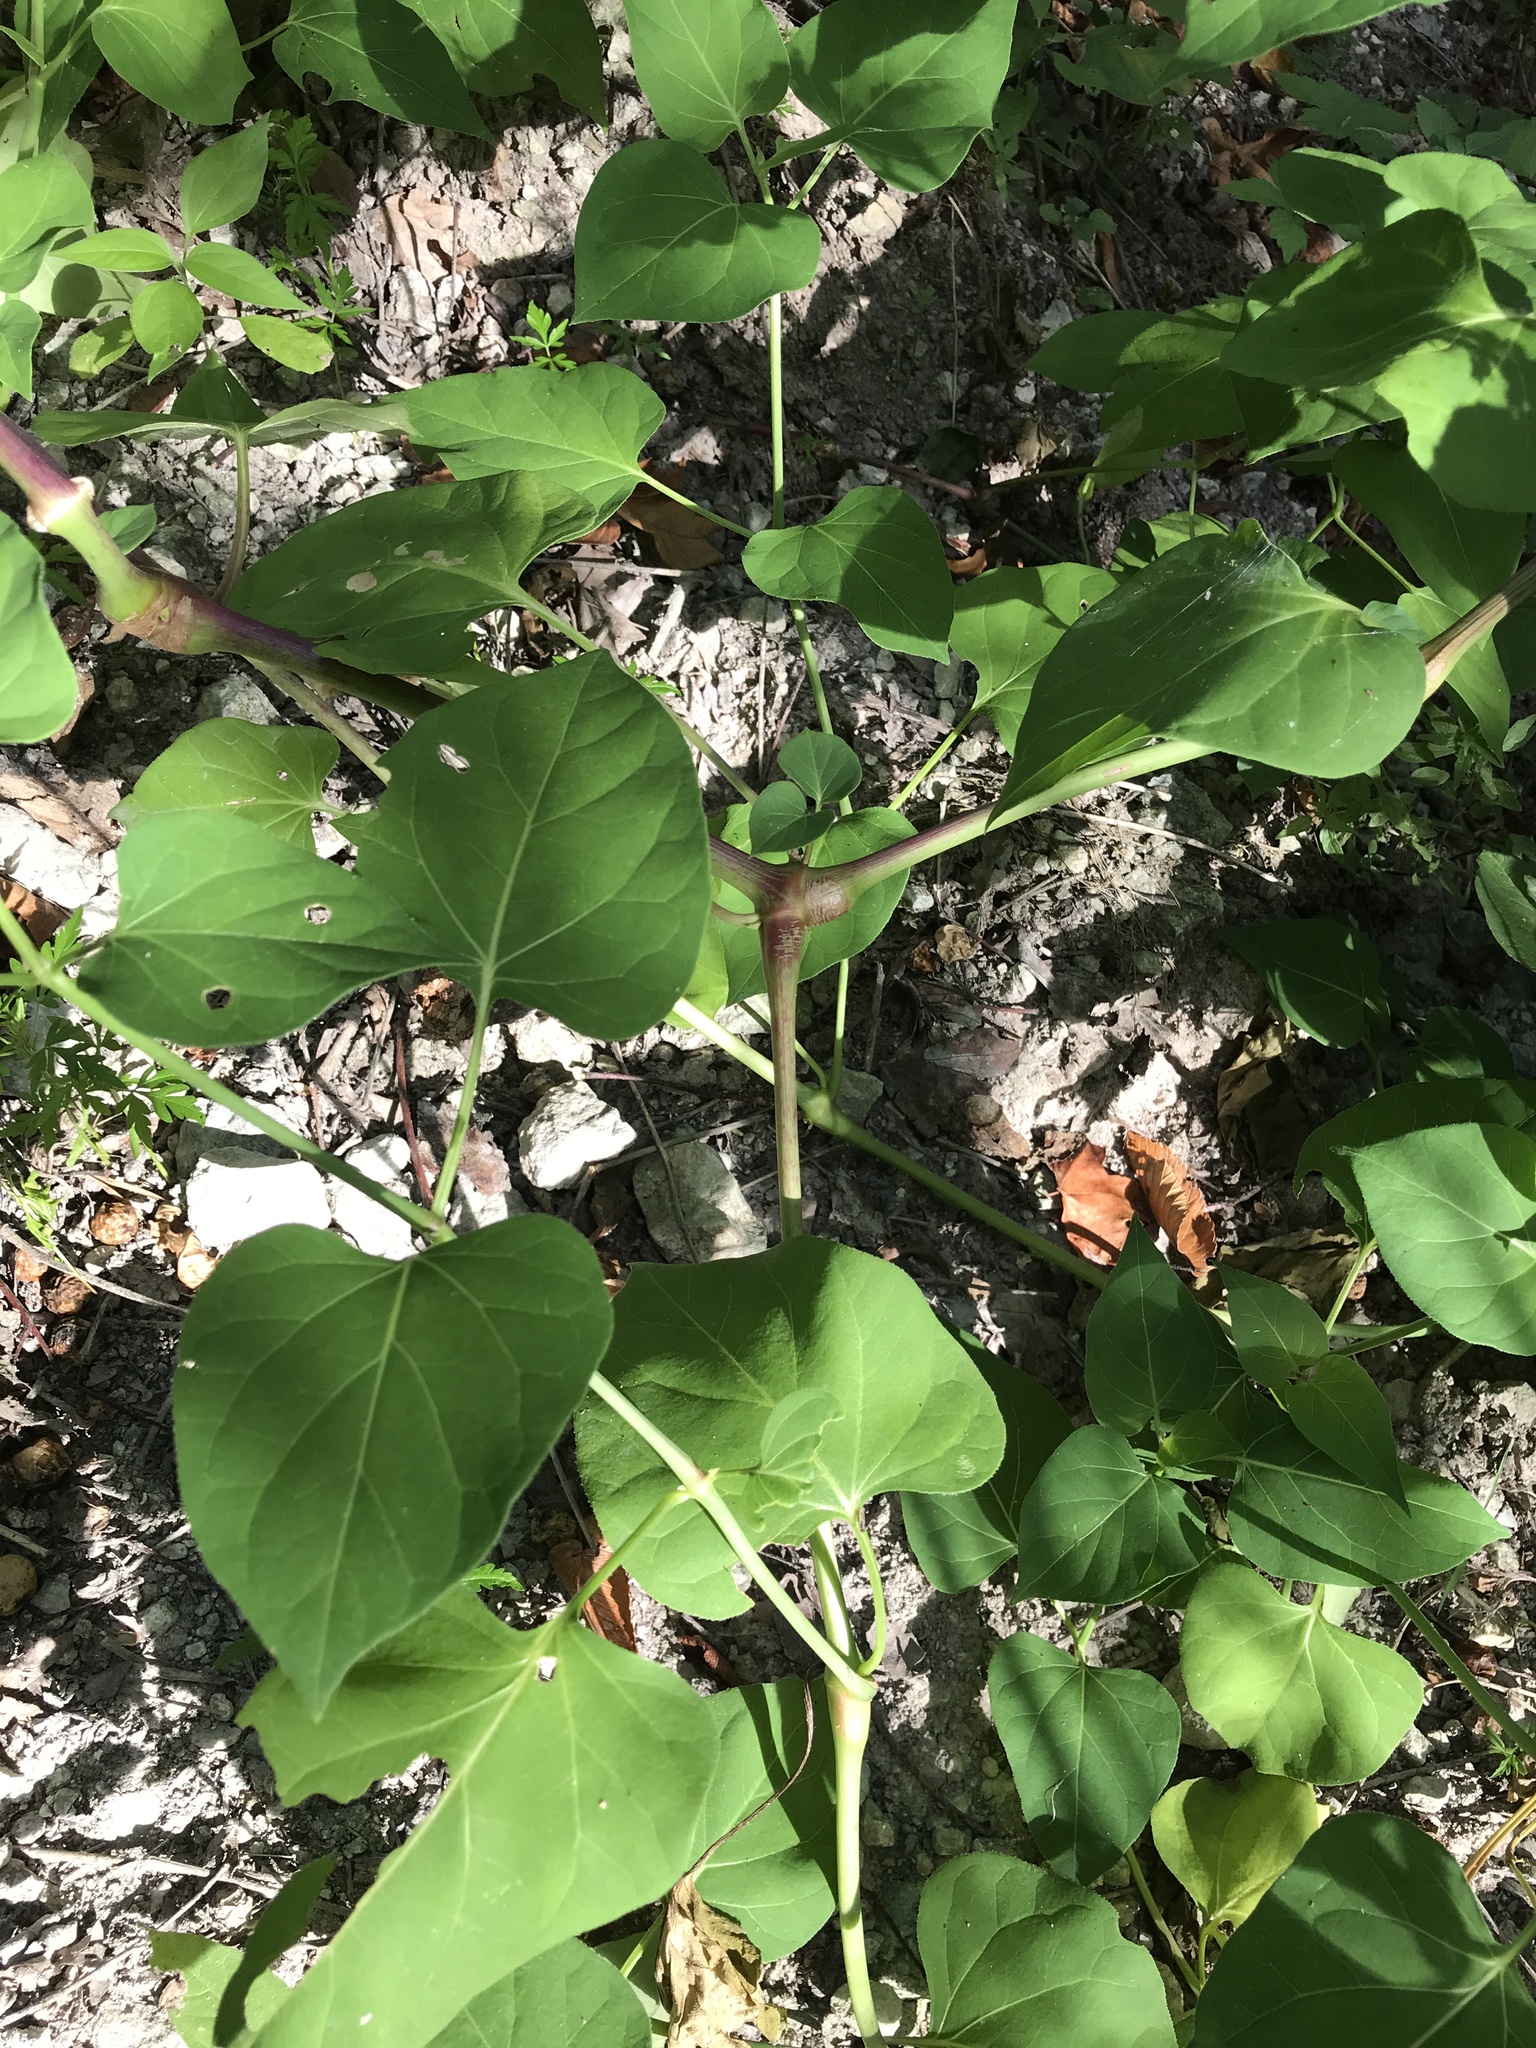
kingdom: Plantae
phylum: Tracheophyta
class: Magnoliopsida
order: Caryophyllales
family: Nyctaginaceae
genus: Mirabilis
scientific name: Mirabilis jalapa
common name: Marvel-of-peru
